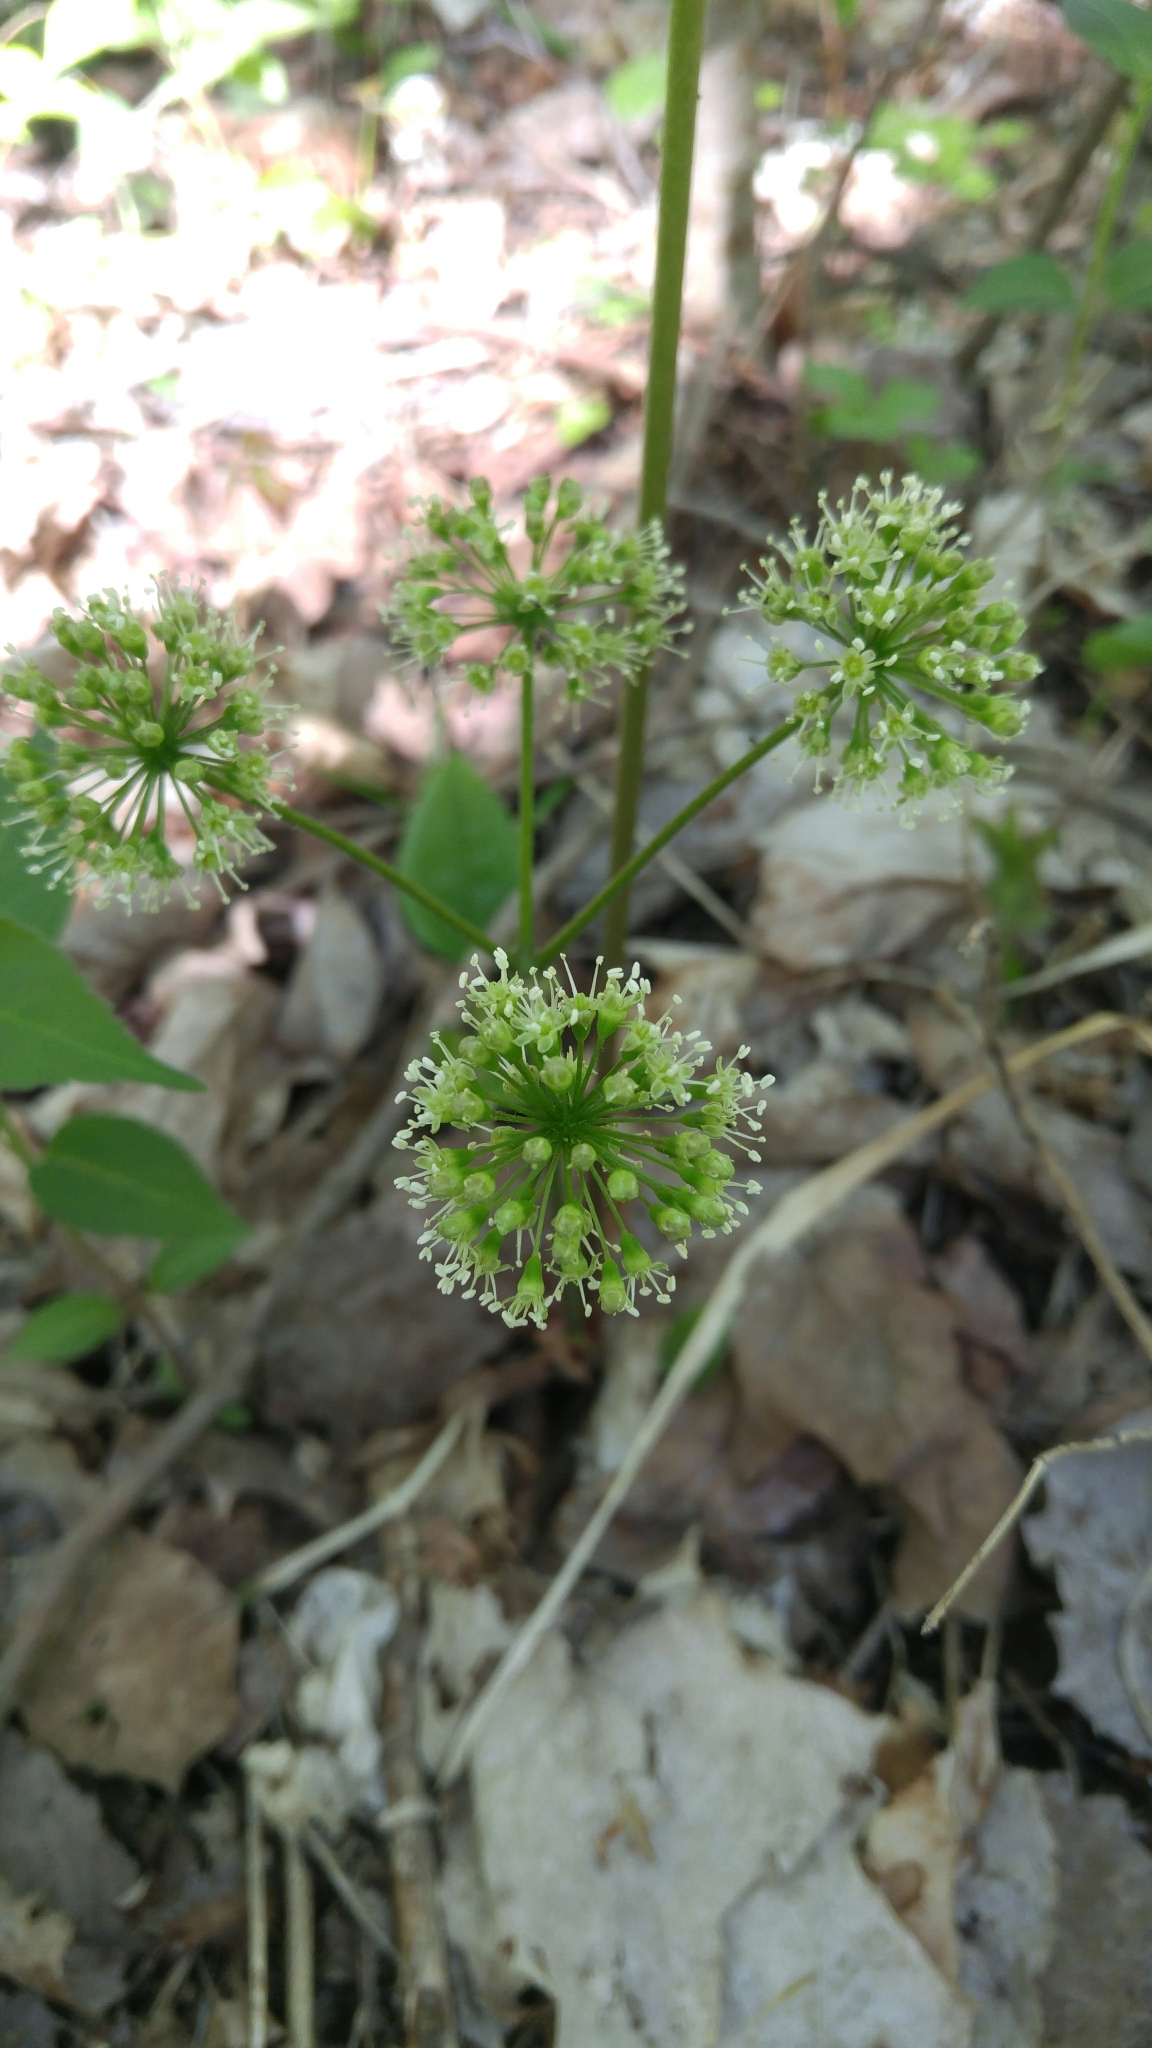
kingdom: Plantae
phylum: Tracheophyta
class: Magnoliopsida
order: Apiales
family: Araliaceae
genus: Aralia
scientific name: Aralia nudicaulis
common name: Wild sarsaparilla
